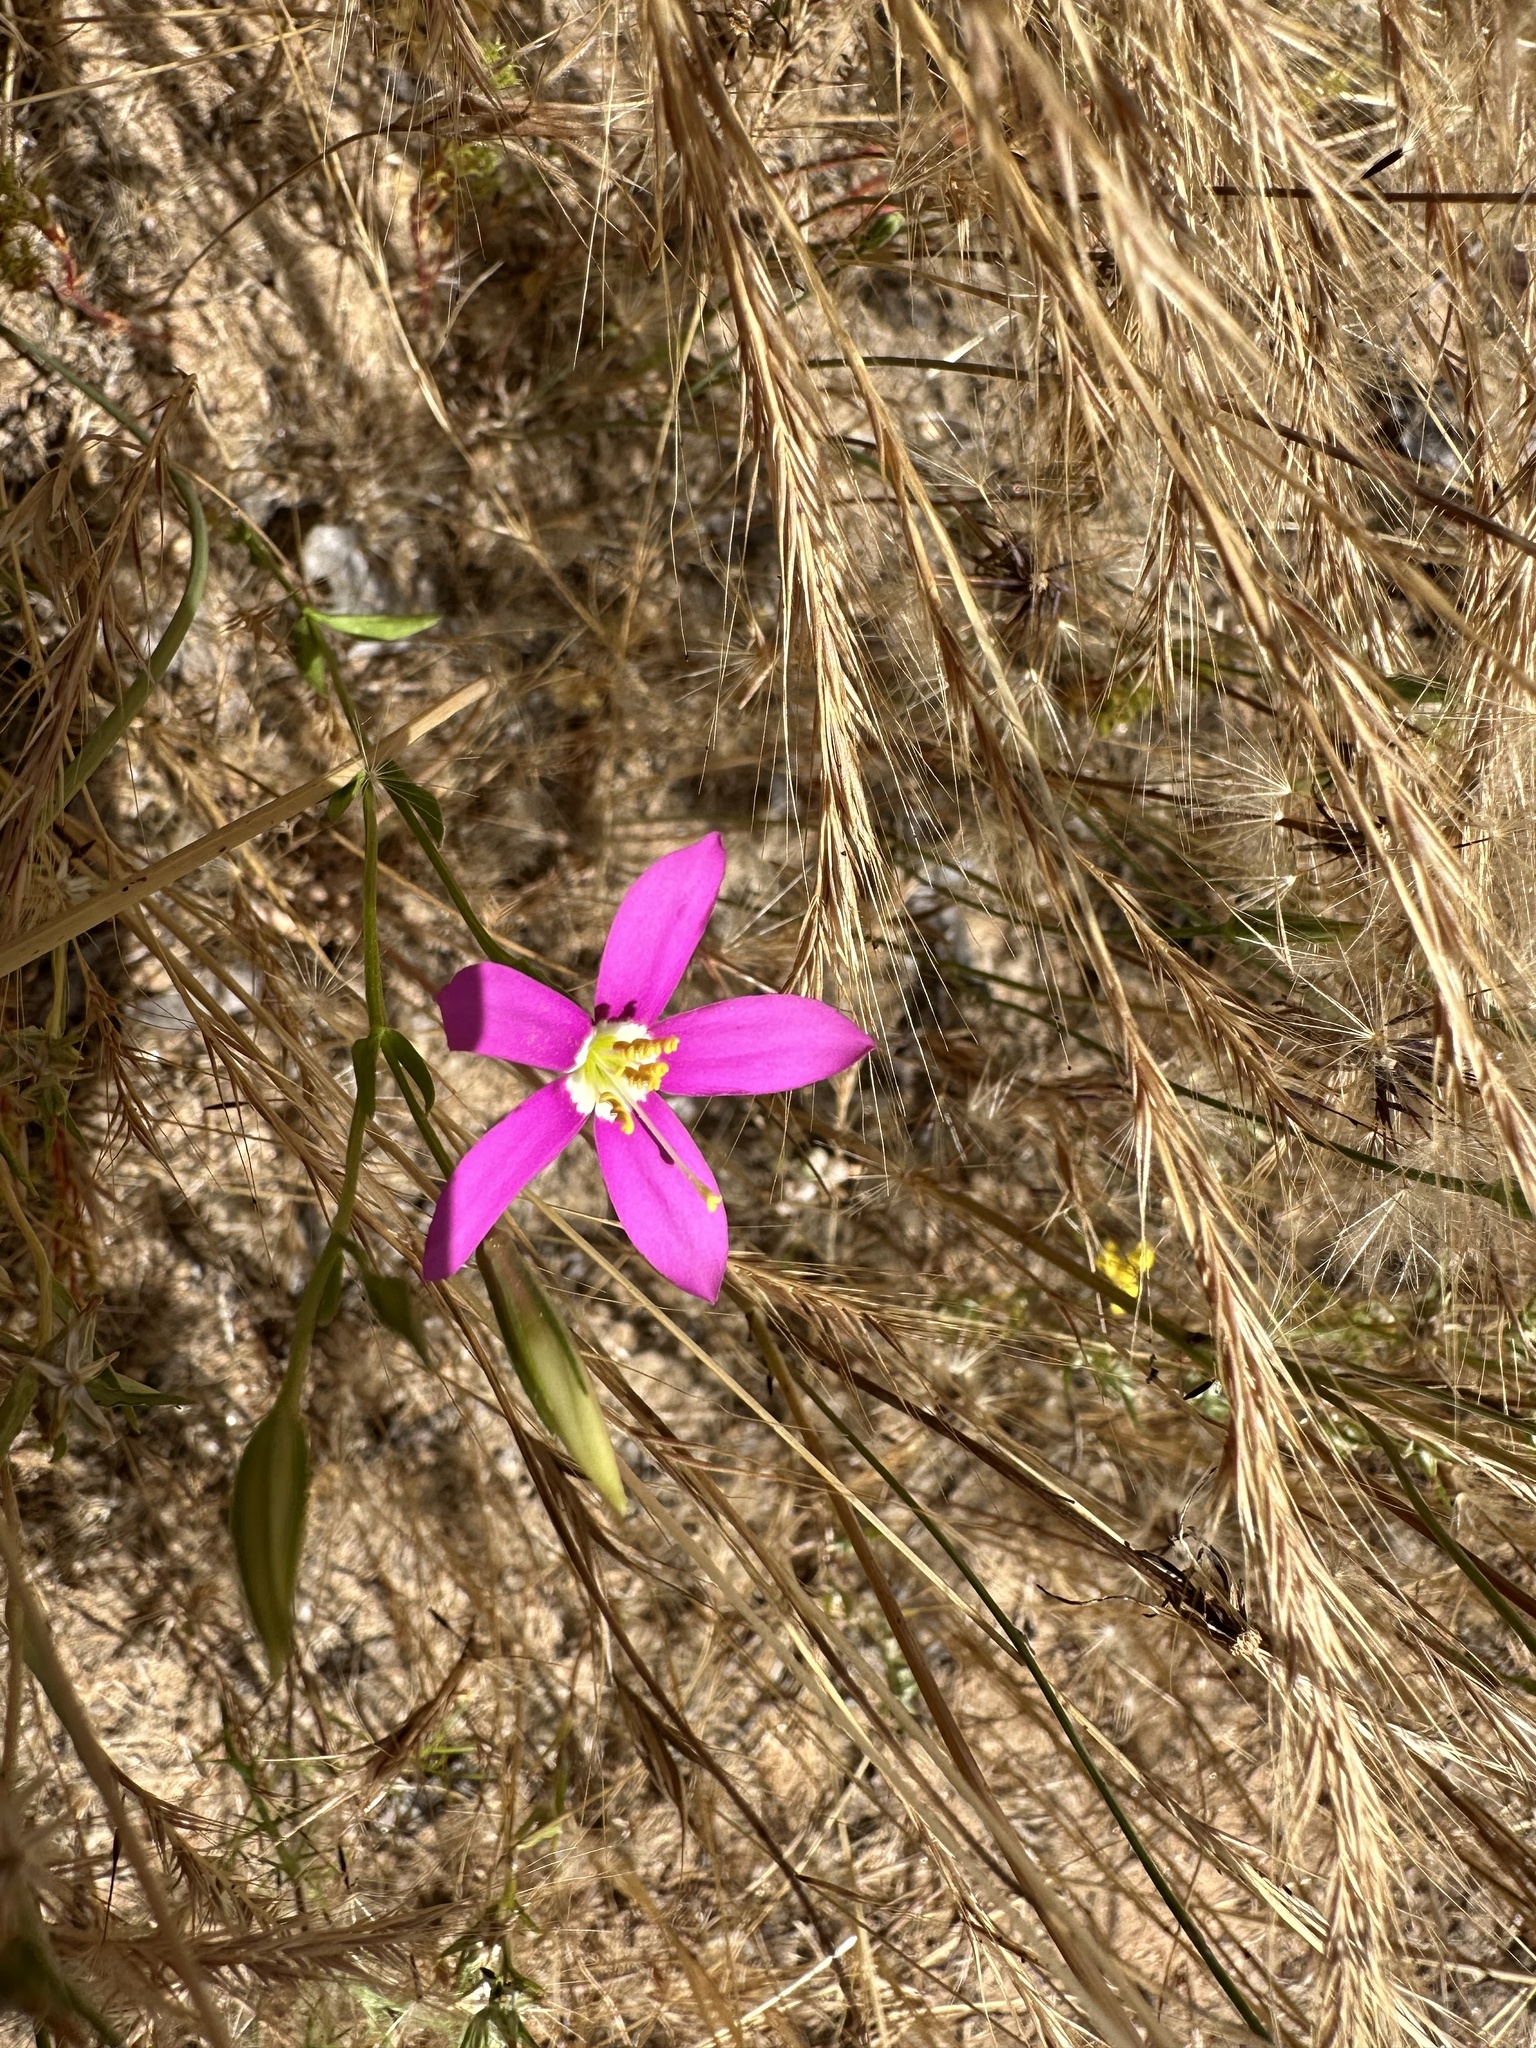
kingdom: Plantae
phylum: Tracheophyta
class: Magnoliopsida
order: Gentianales
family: Gentianaceae
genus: Zeltnera
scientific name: Zeltnera venusta
